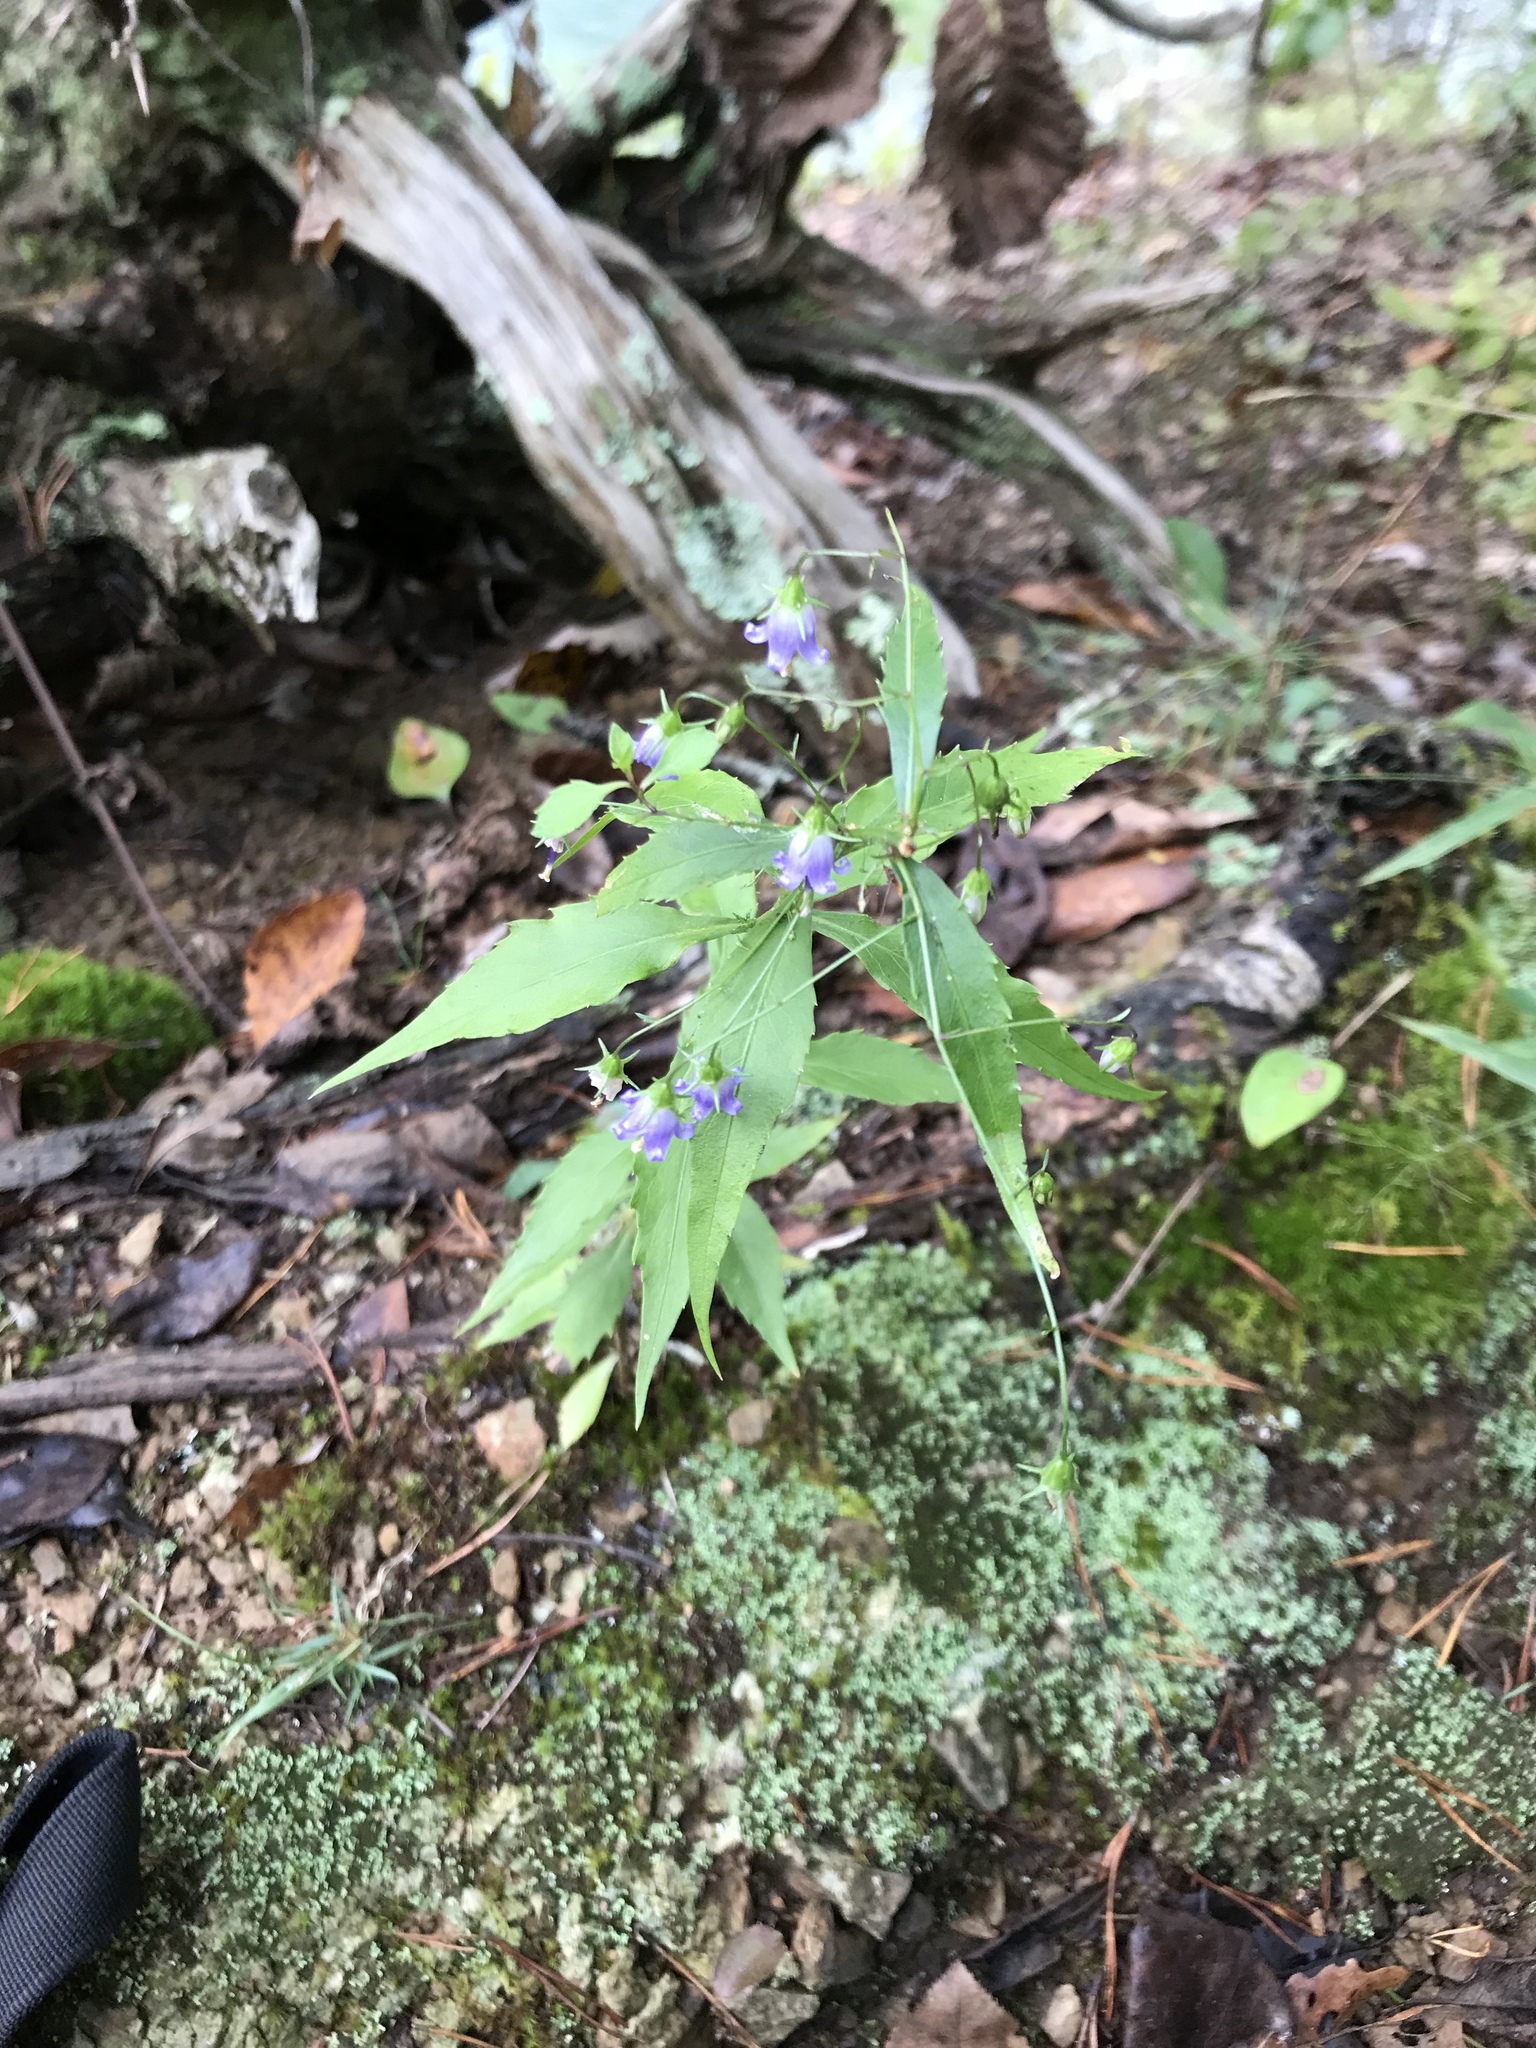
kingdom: Plantae
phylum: Tracheophyta
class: Magnoliopsida
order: Asterales
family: Campanulaceae
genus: Campanula
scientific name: Campanula divaricata
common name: Appalachian bellflower
